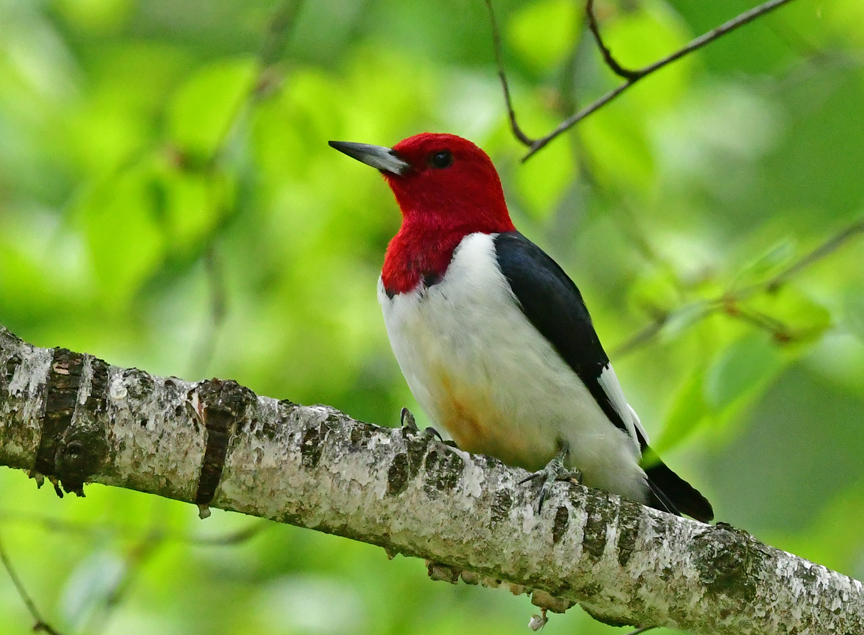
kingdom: Animalia
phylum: Chordata
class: Aves
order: Piciformes
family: Picidae
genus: Melanerpes
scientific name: Melanerpes erythrocephalus
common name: Red-headed woodpecker
